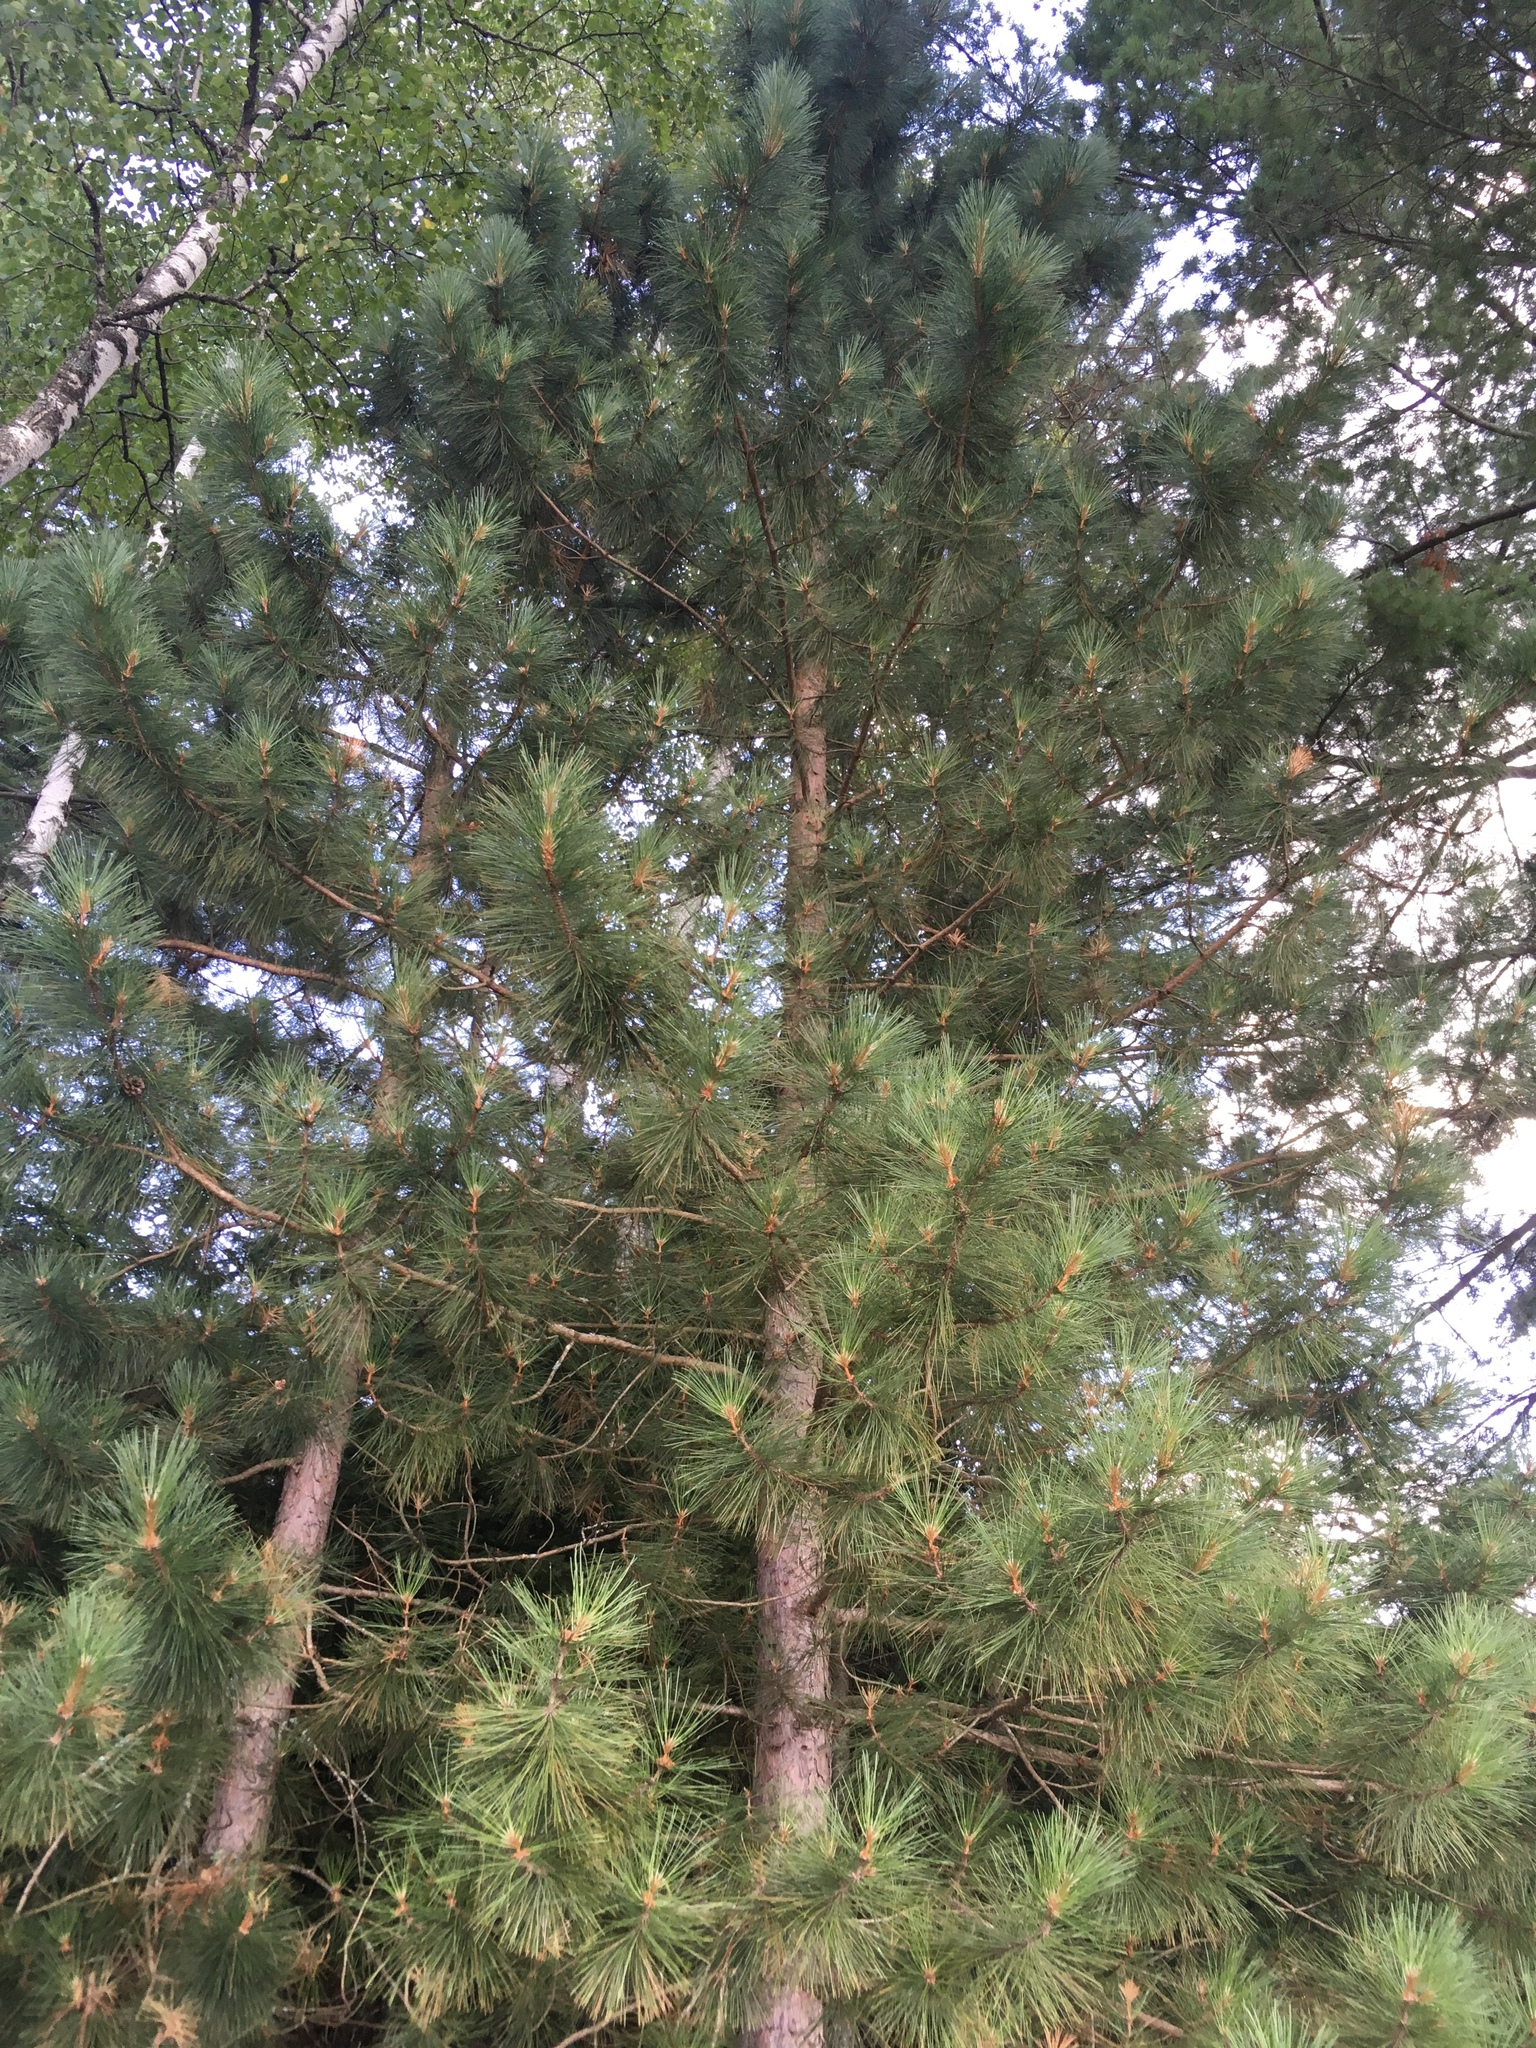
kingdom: Plantae
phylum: Tracheophyta
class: Pinopsida
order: Pinales
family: Pinaceae
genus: Pinus
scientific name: Pinus resinosa
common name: Norway pine
